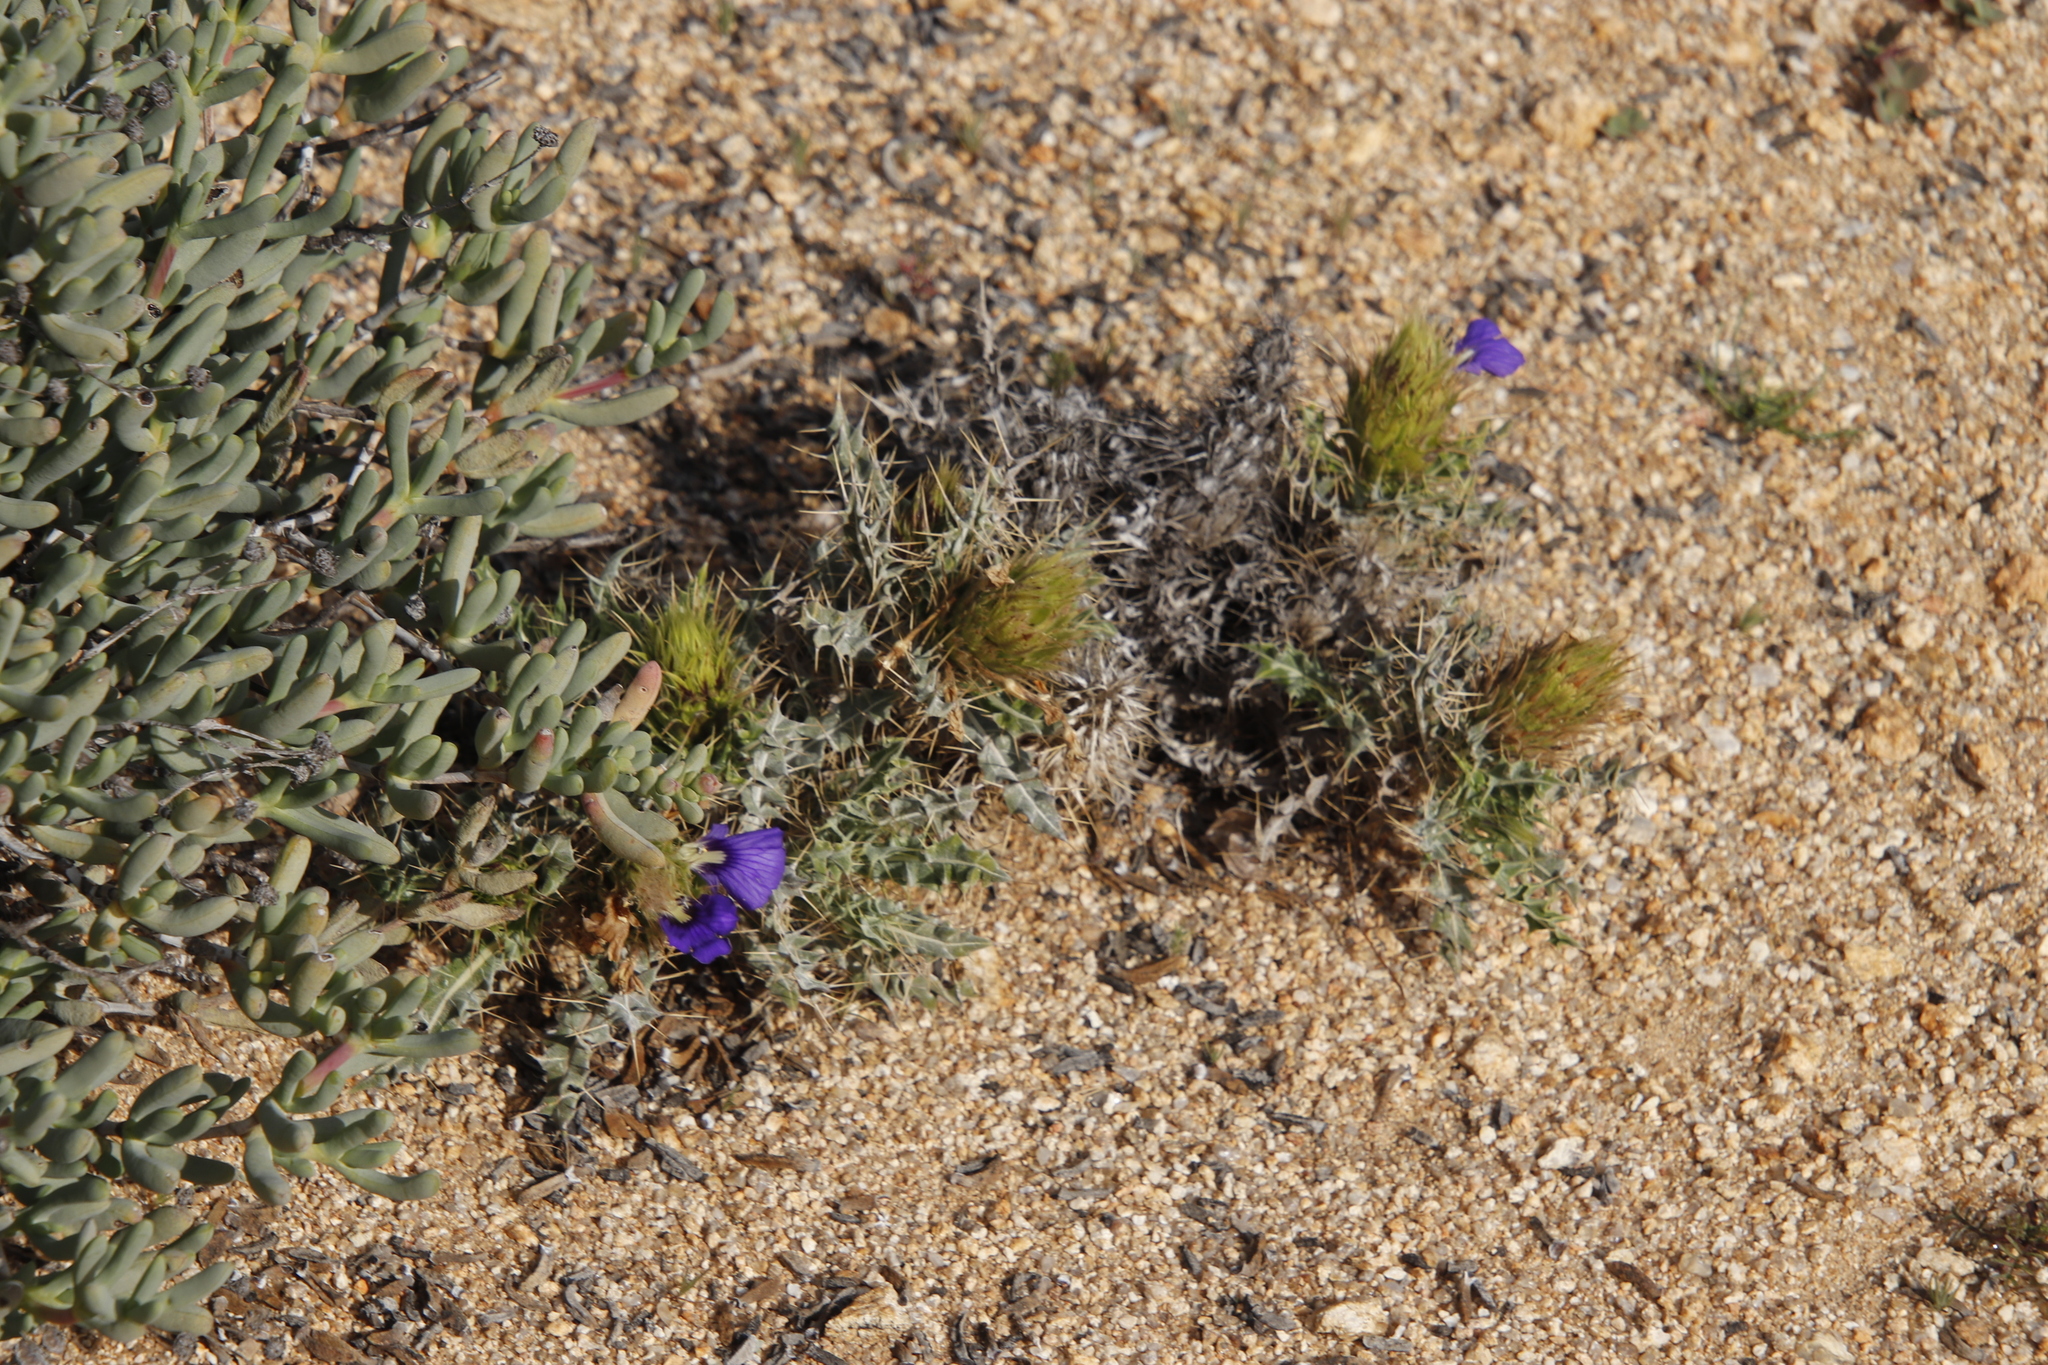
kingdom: Plantae
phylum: Tracheophyta
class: Magnoliopsida
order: Lamiales
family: Acanthaceae
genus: Acanthopsis
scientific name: Acanthopsis horrida
